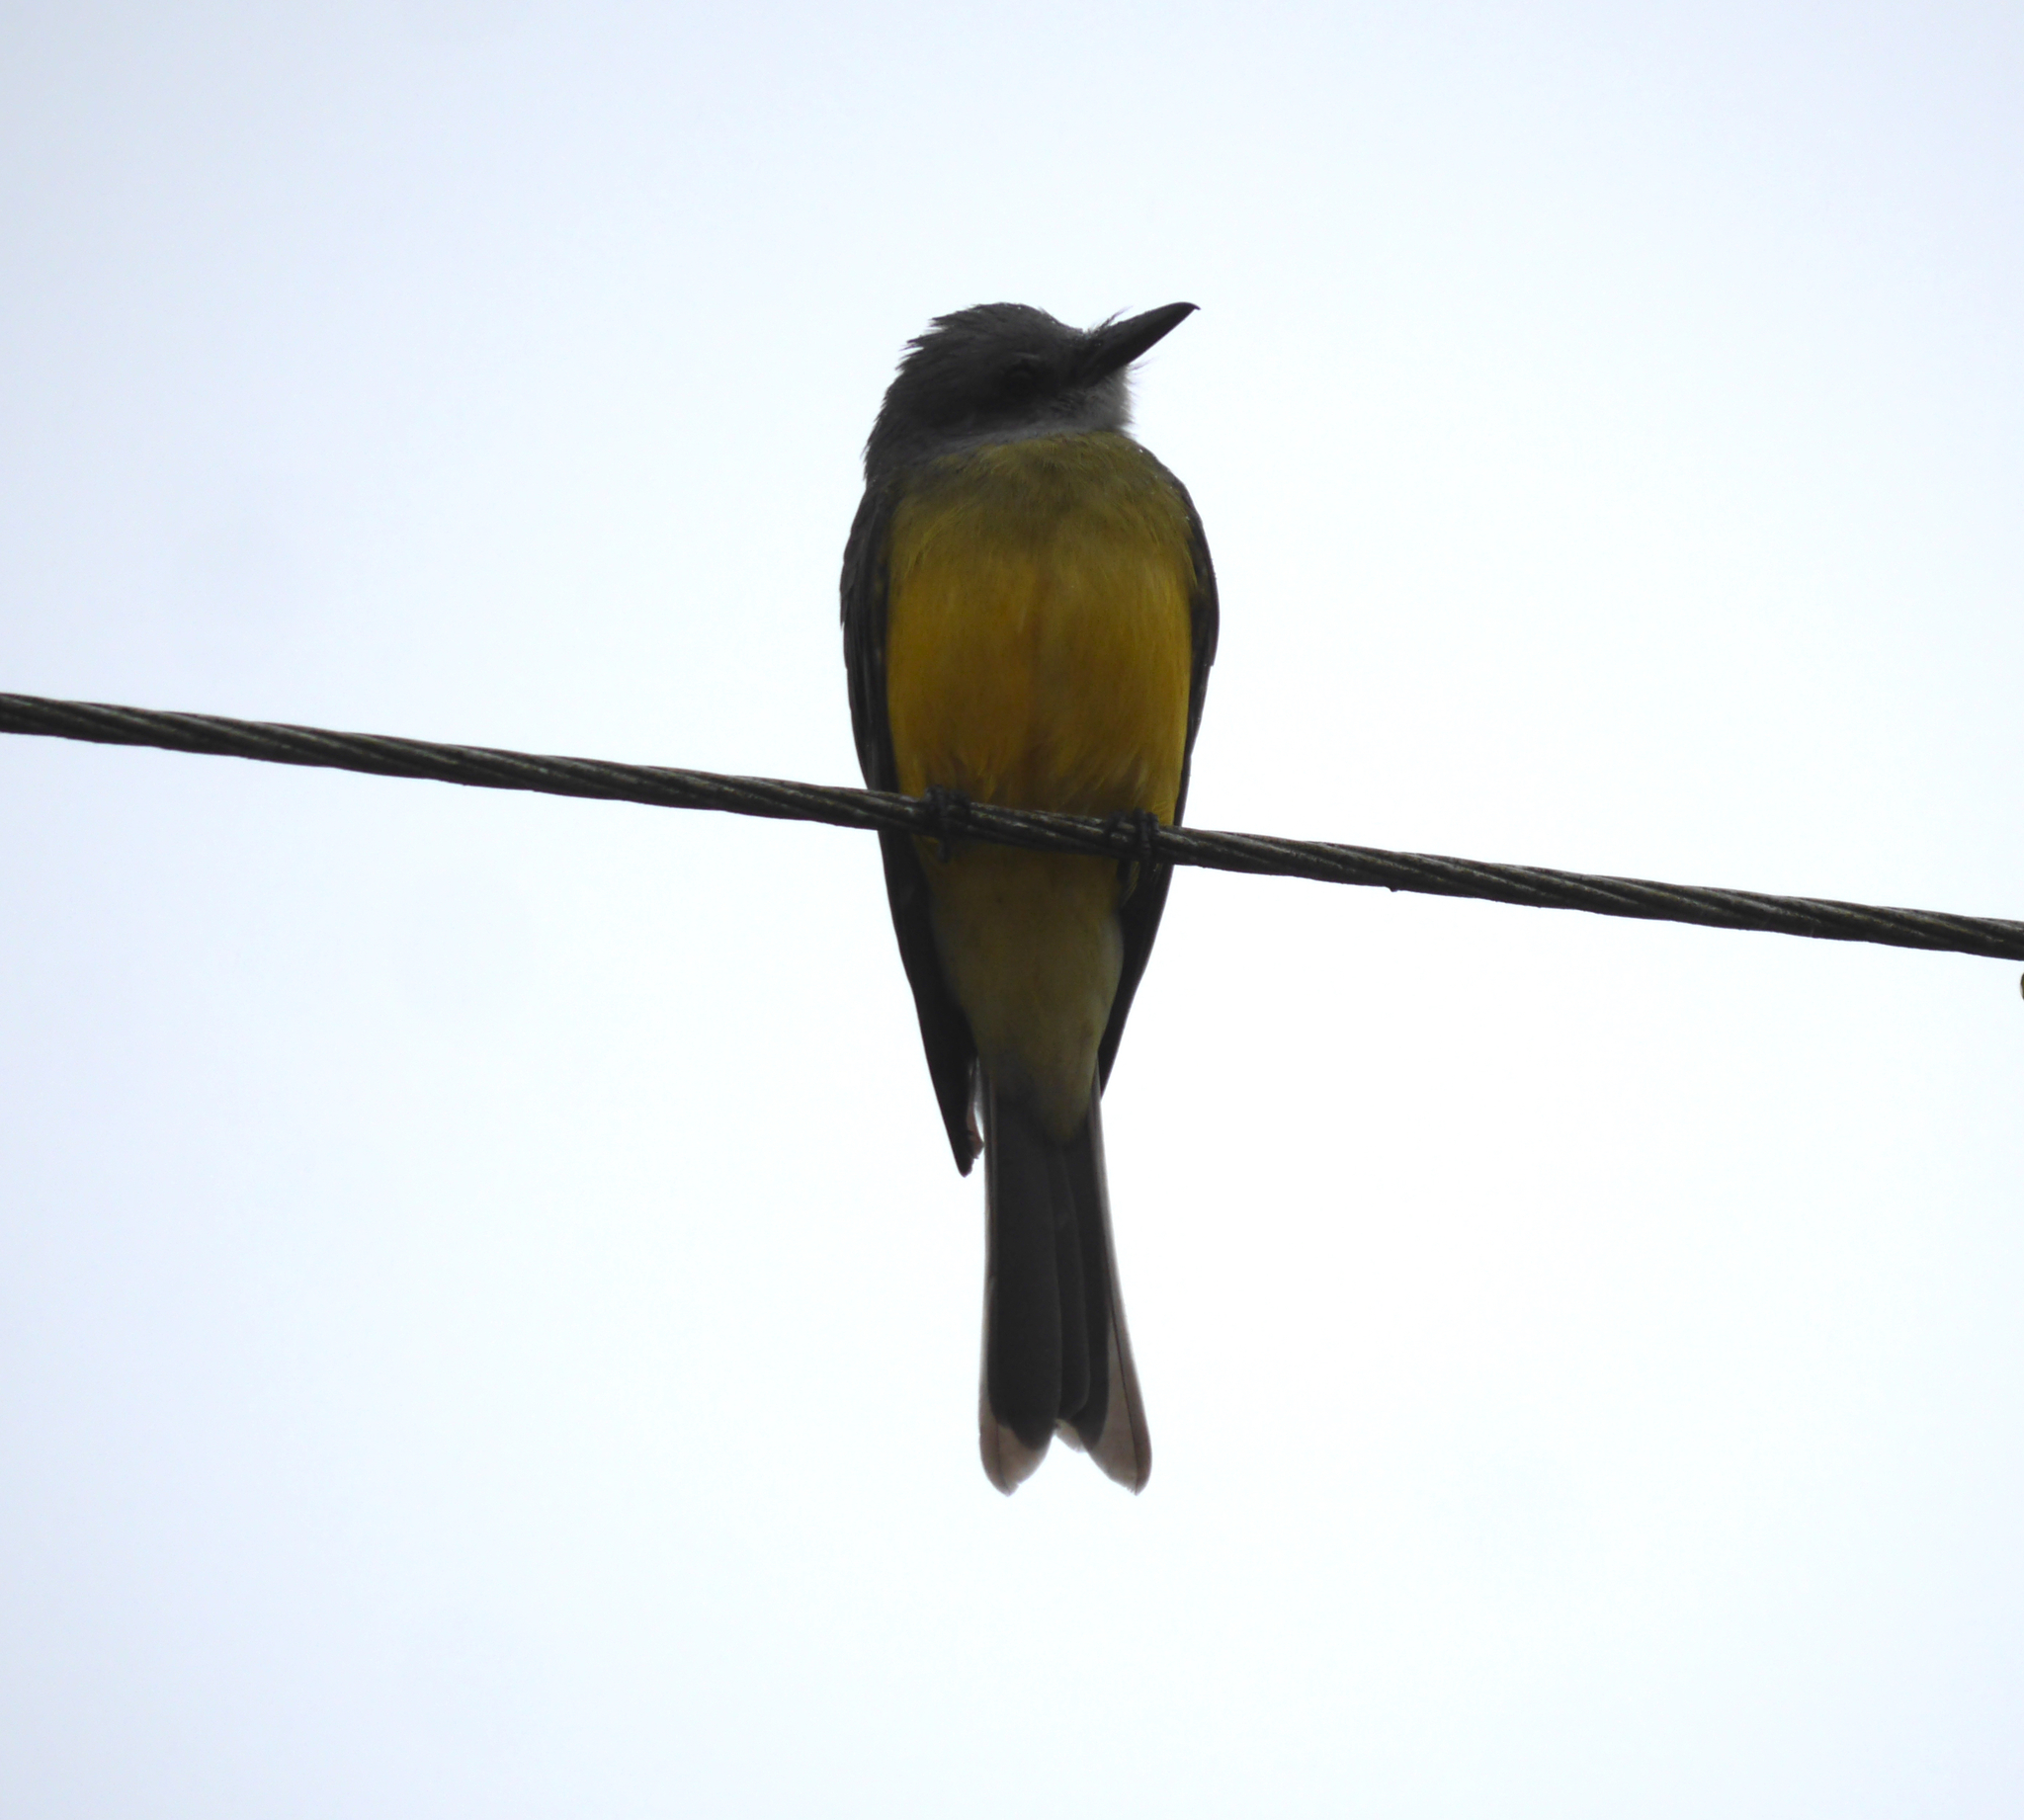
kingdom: Animalia
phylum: Chordata
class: Aves
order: Passeriformes
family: Tyrannidae
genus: Tyrannus
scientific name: Tyrannus melancholicus
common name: Tropical kingbird
